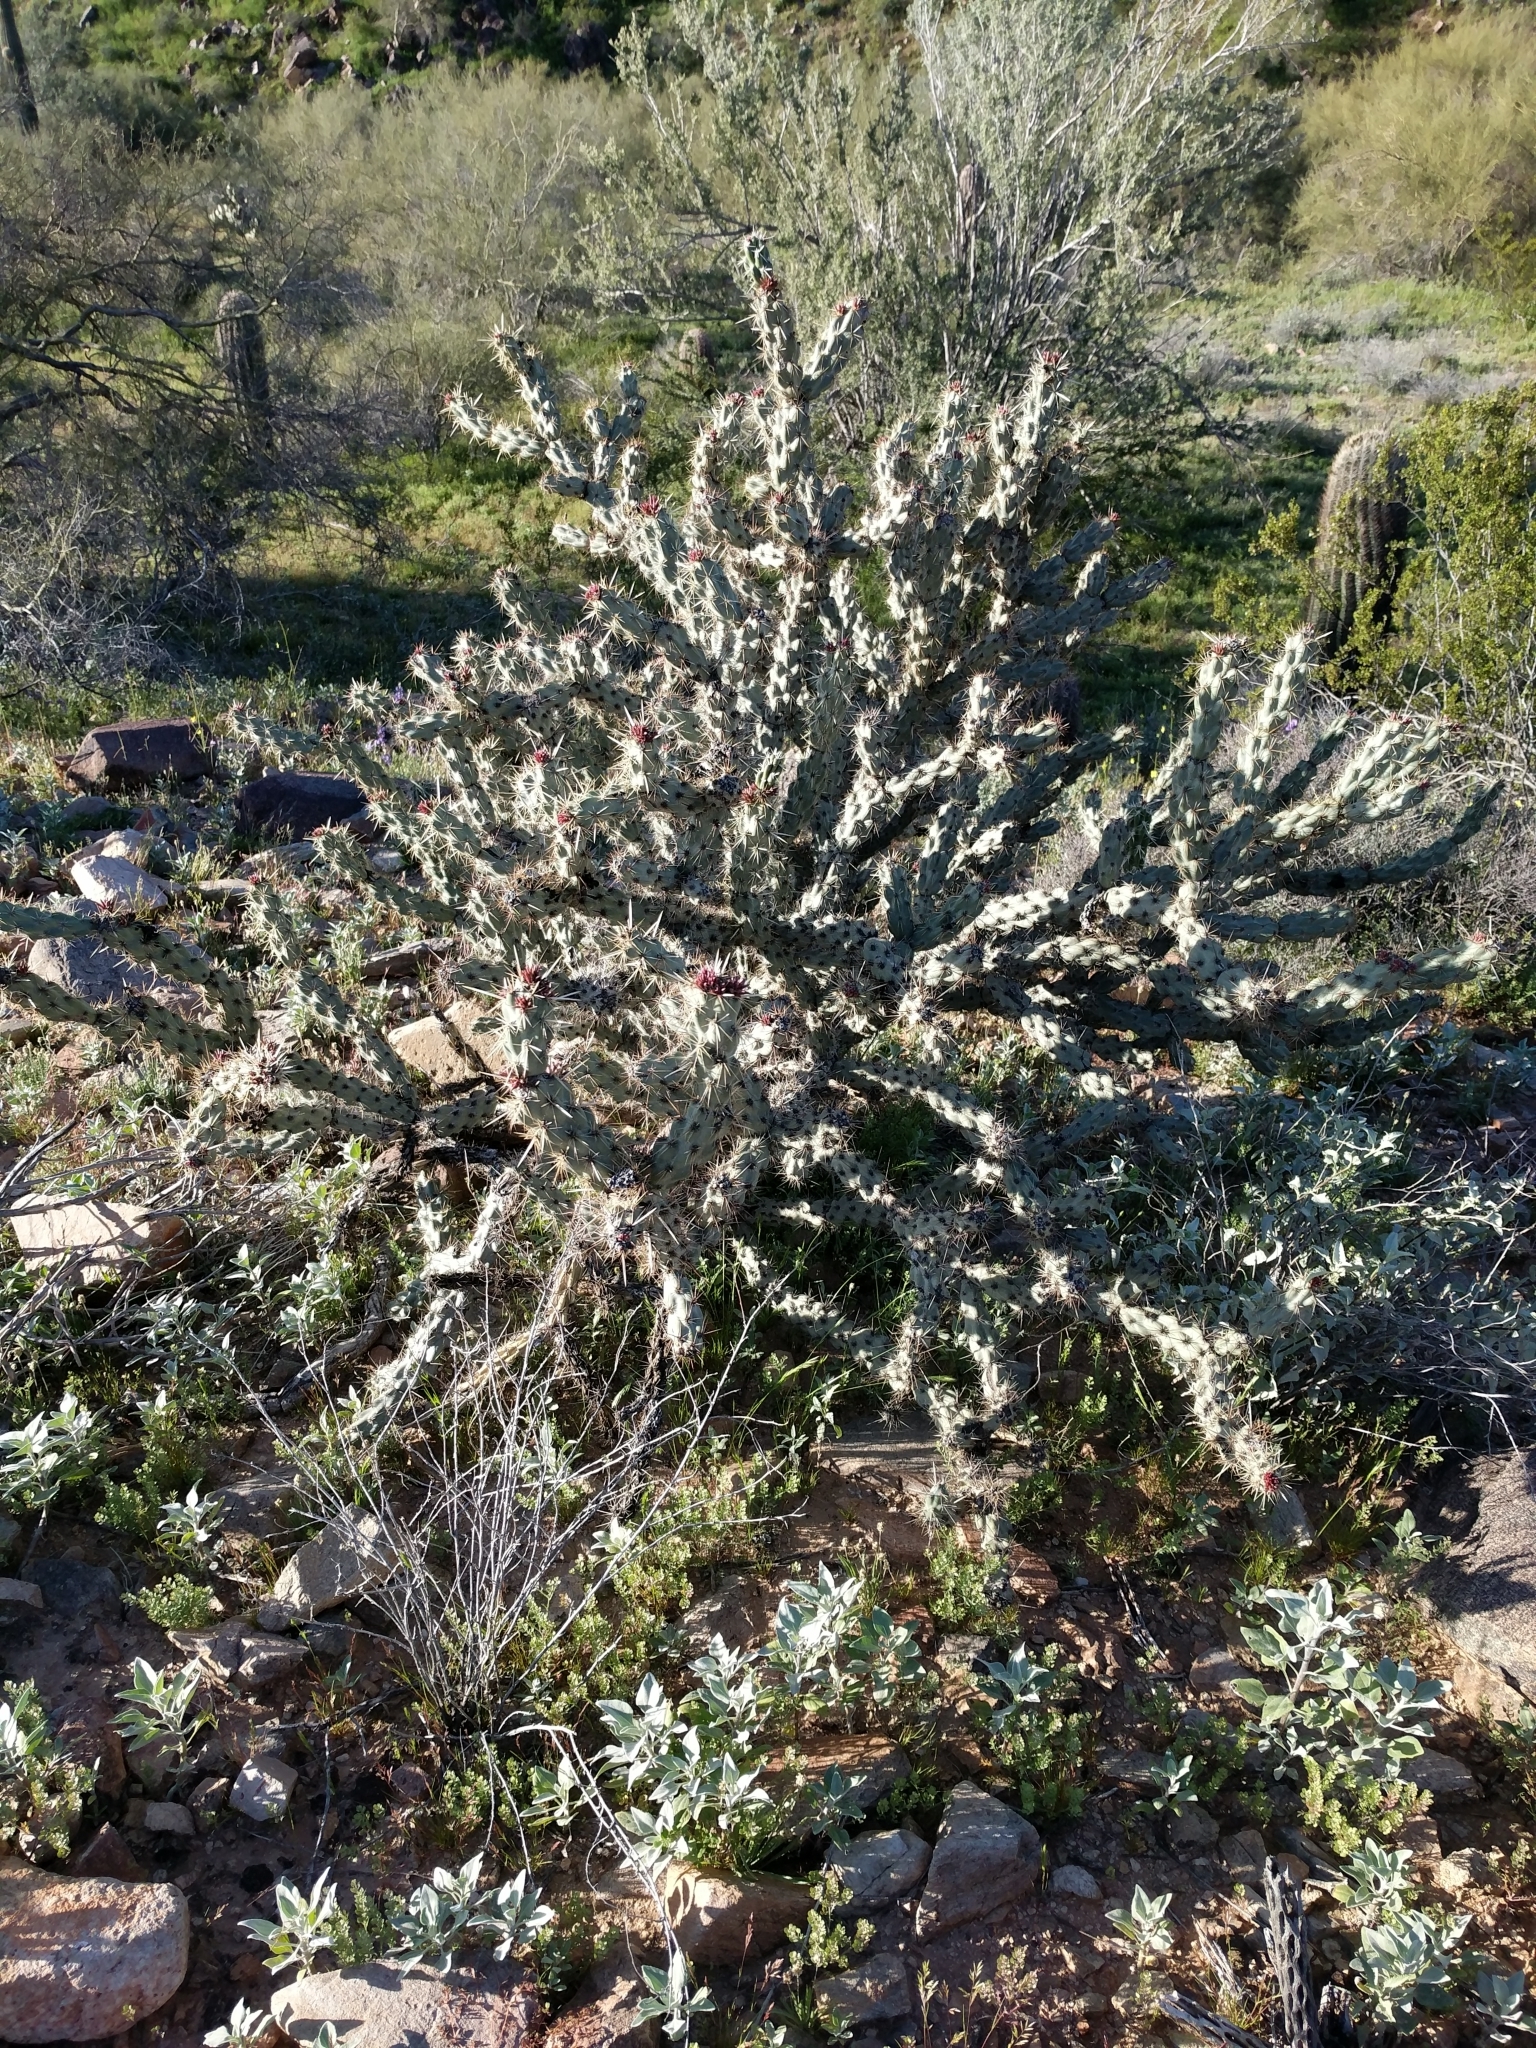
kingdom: Plantae
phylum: Tracheophyta
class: Magnoliopsida
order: Caryophyllales
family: Cactaceae
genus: Cylindropuntia
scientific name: Cylindropuntia acanthocarpa
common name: Buckhorn cholla
